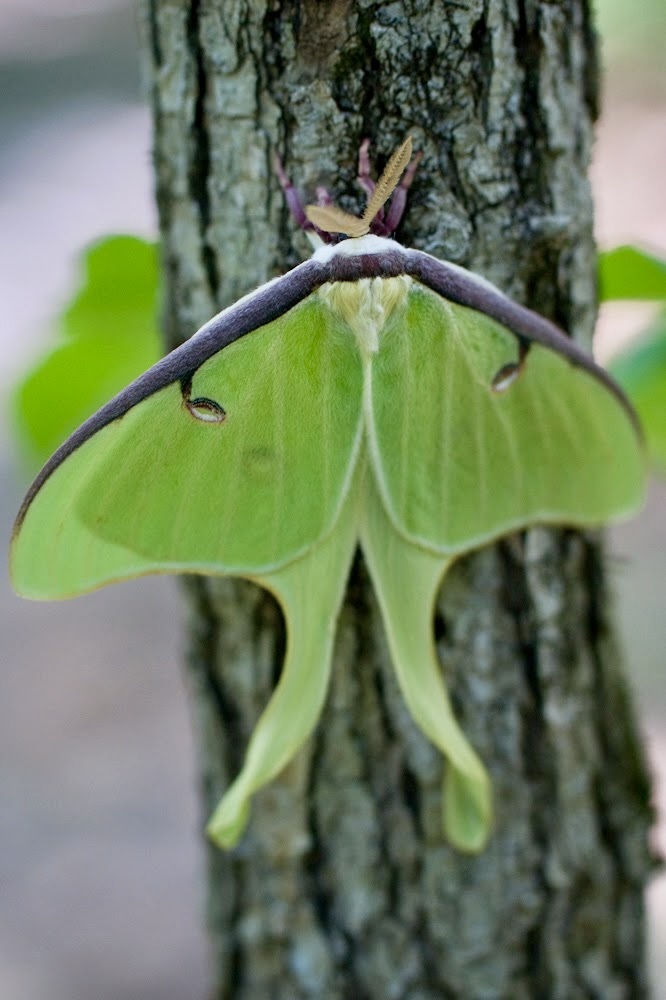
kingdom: Animalia
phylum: Arthropoda
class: Insecta
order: Lepidoptera
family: Saturniidae
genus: Actias
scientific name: Actias luna
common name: Luna moth
